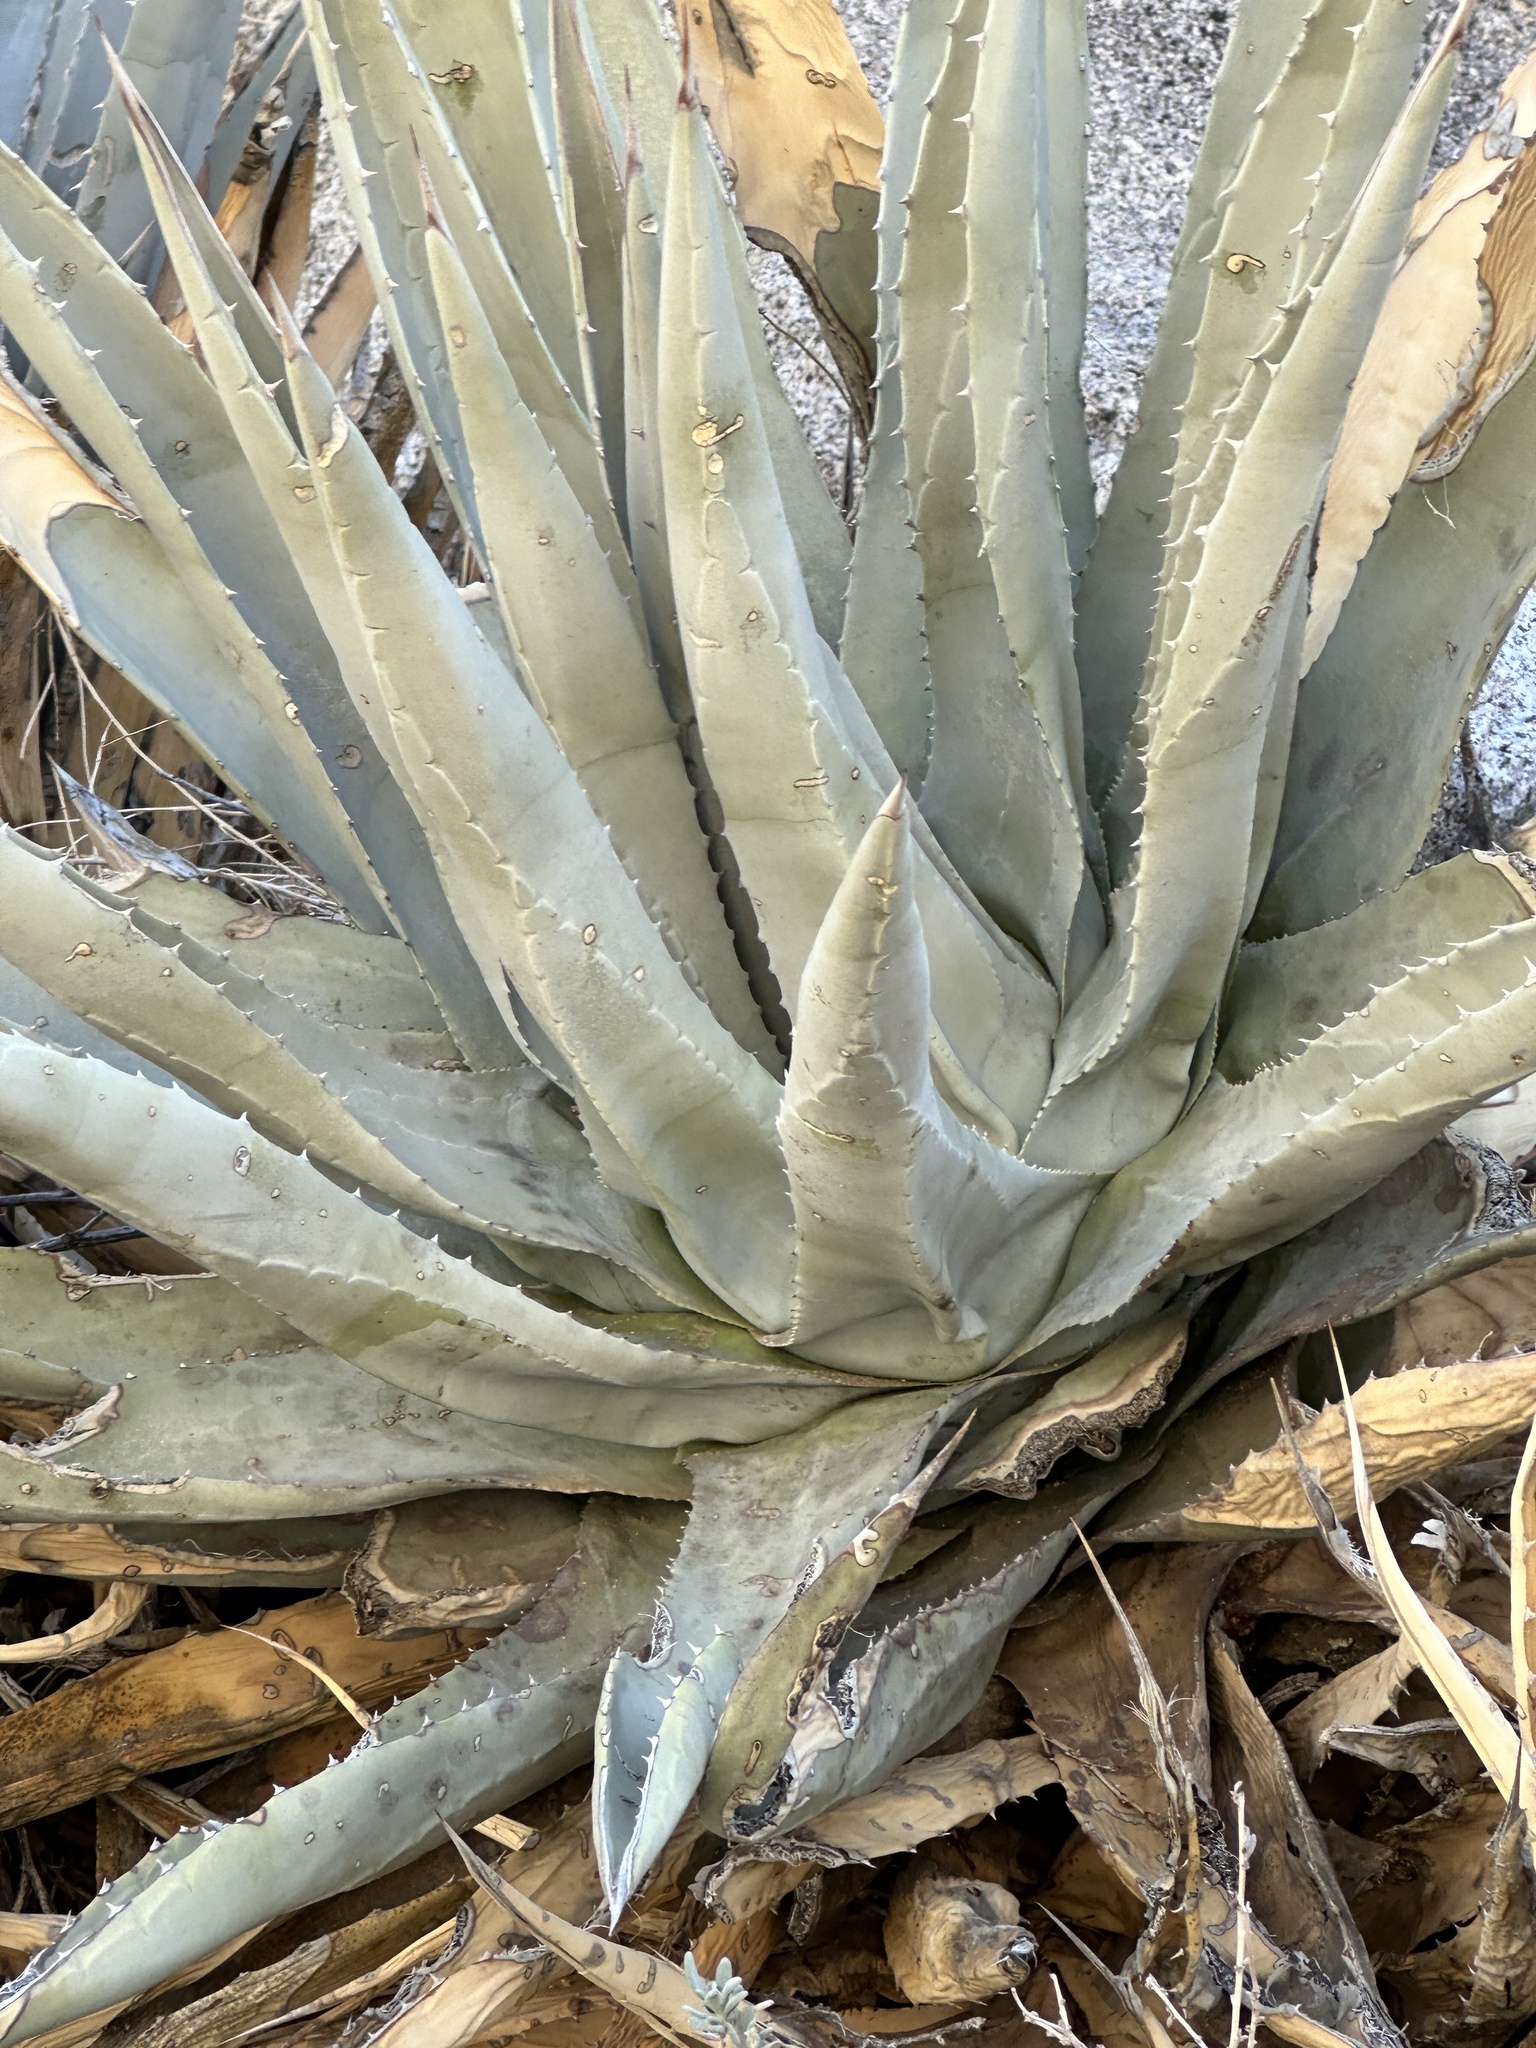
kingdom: Plantae
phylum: Tracheophyta
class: Liliopsida
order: Asparagales
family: Asparagaceae
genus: Agave
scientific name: Agave deserti
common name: Desert agave
